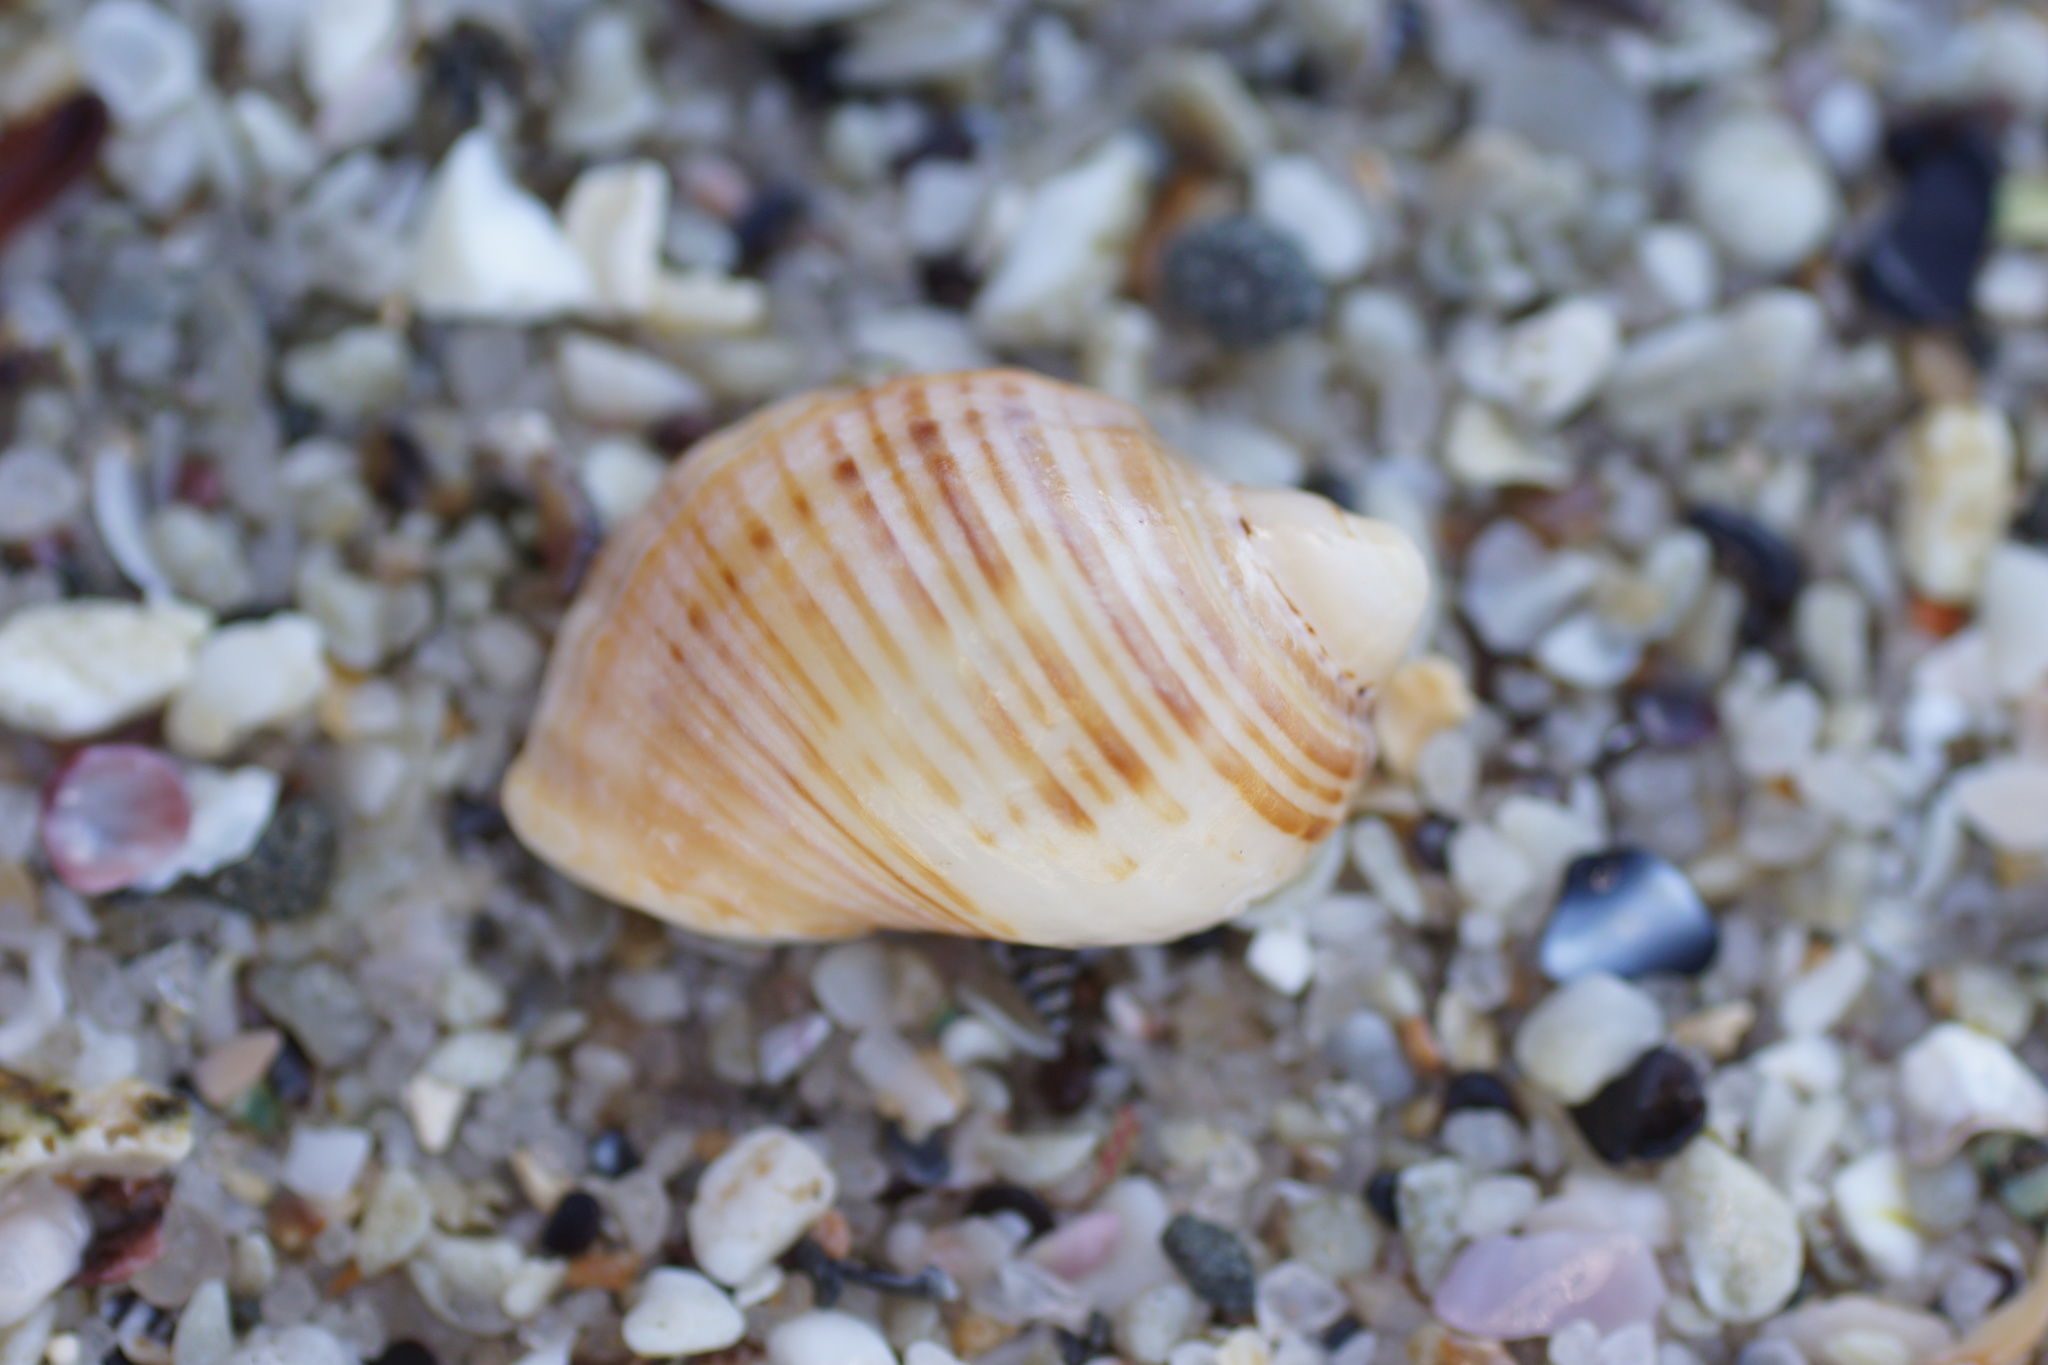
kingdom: Animalia
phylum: Mollusca
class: Gastropoda
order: Neogastropoda
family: Muricidae
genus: Dicathais
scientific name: Dicathais orbita
